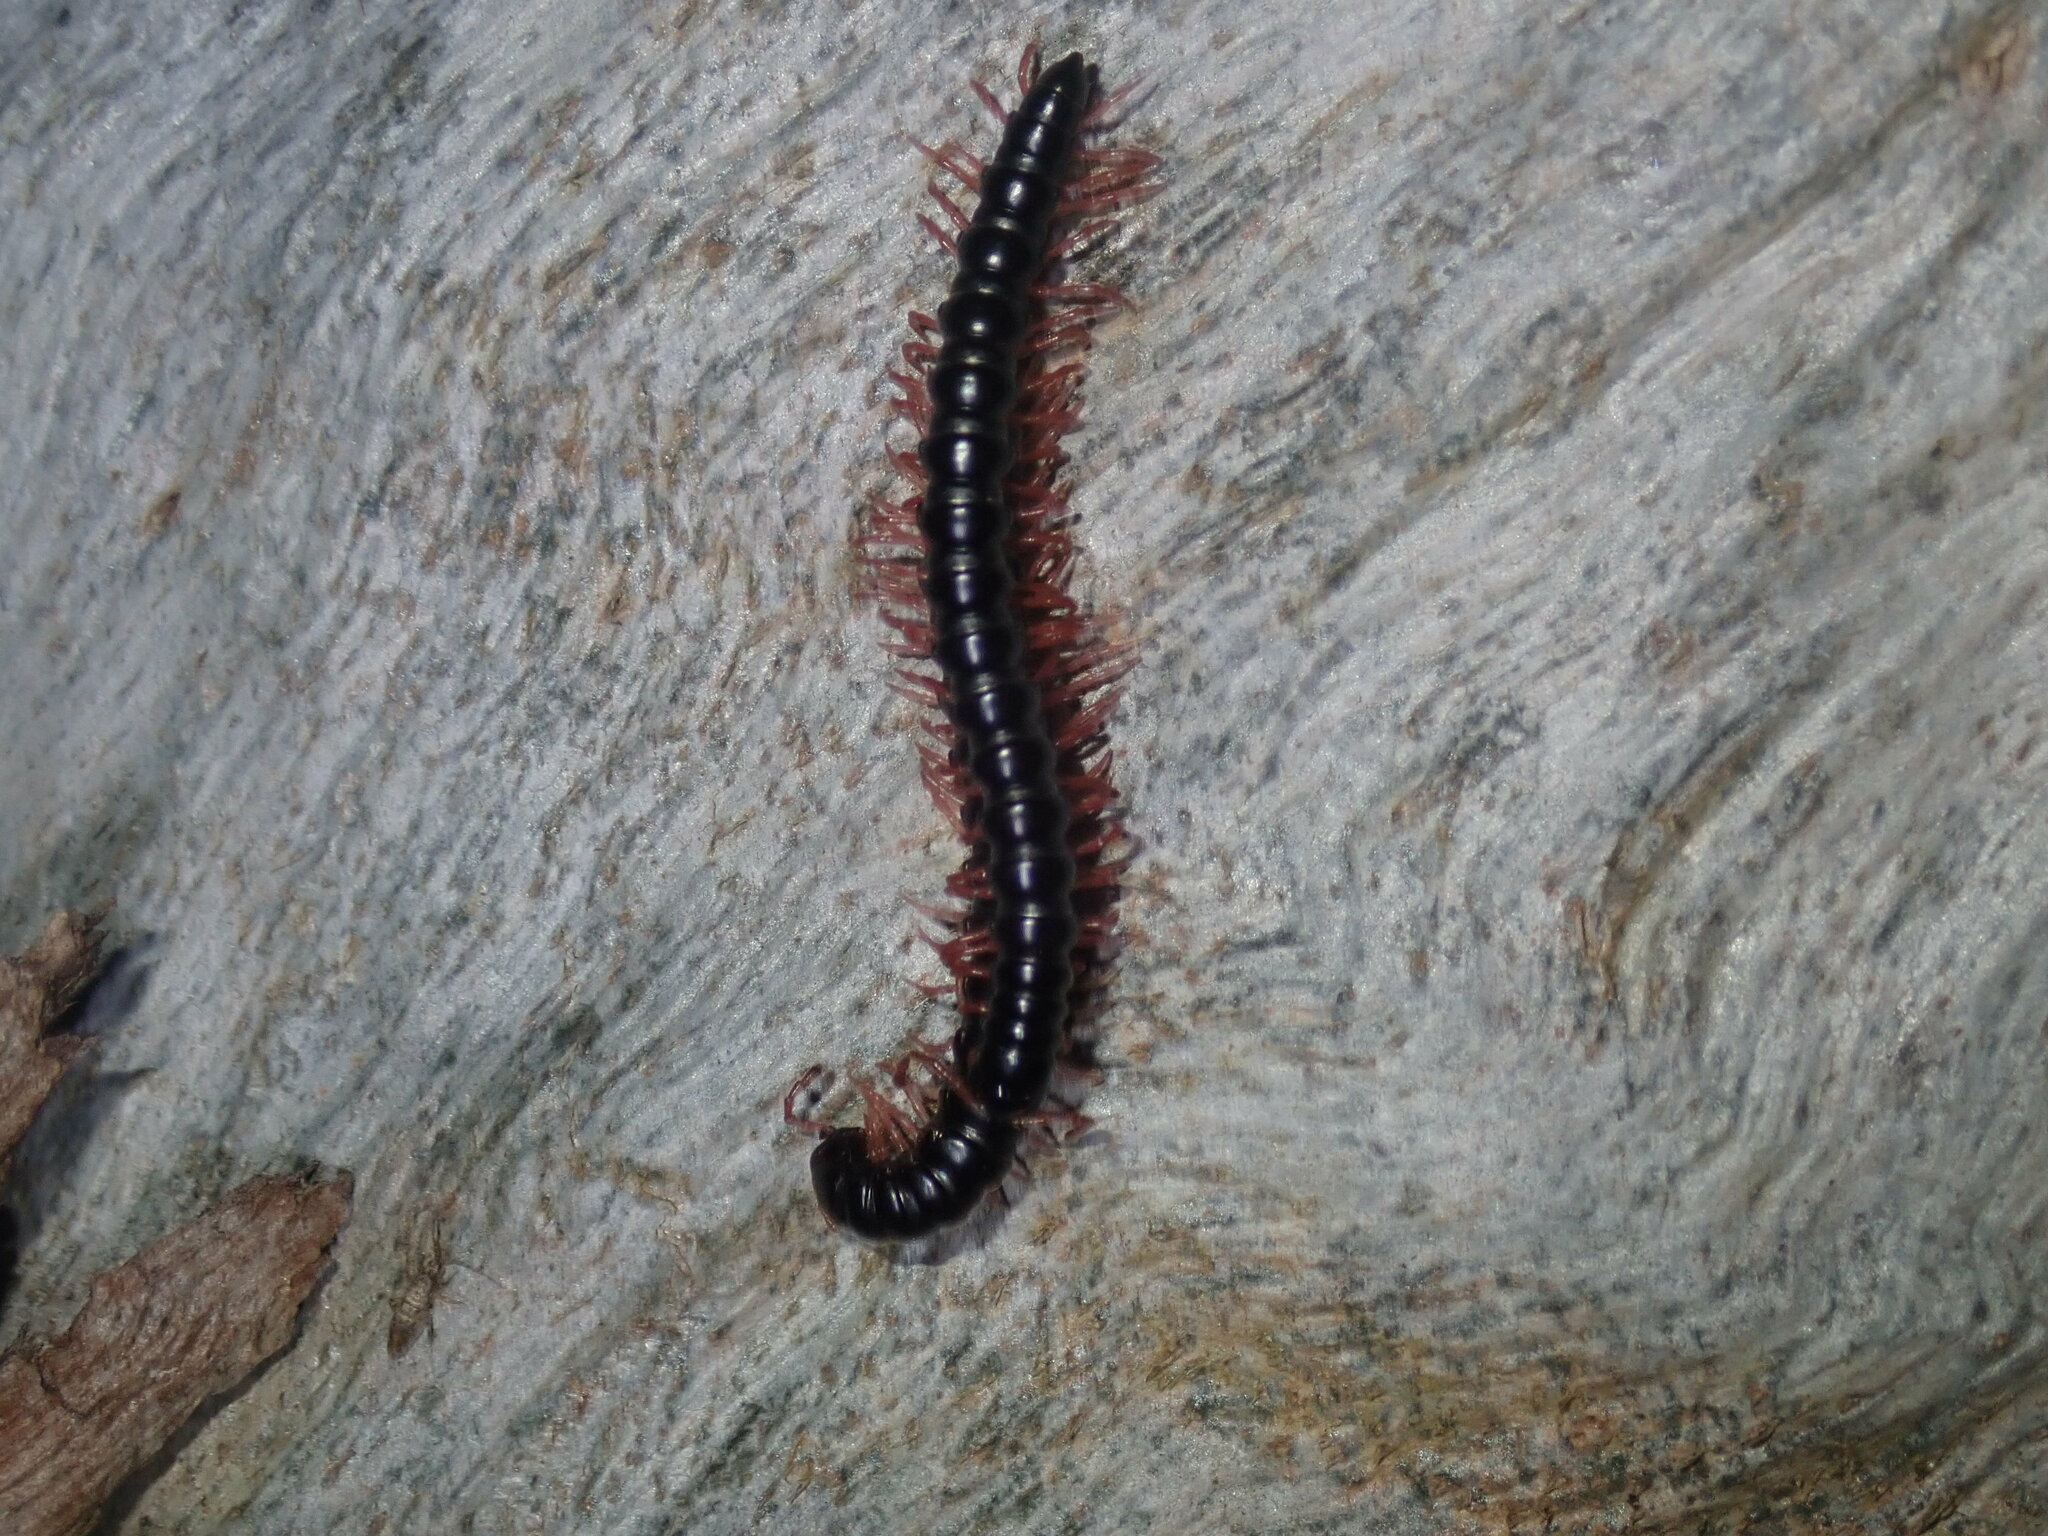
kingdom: Animalia
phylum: Arthropoda
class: Diplopoda
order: Polydesmida
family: Paradoxosomatidae
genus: Heterocladosoma
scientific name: Heterocladosoma
